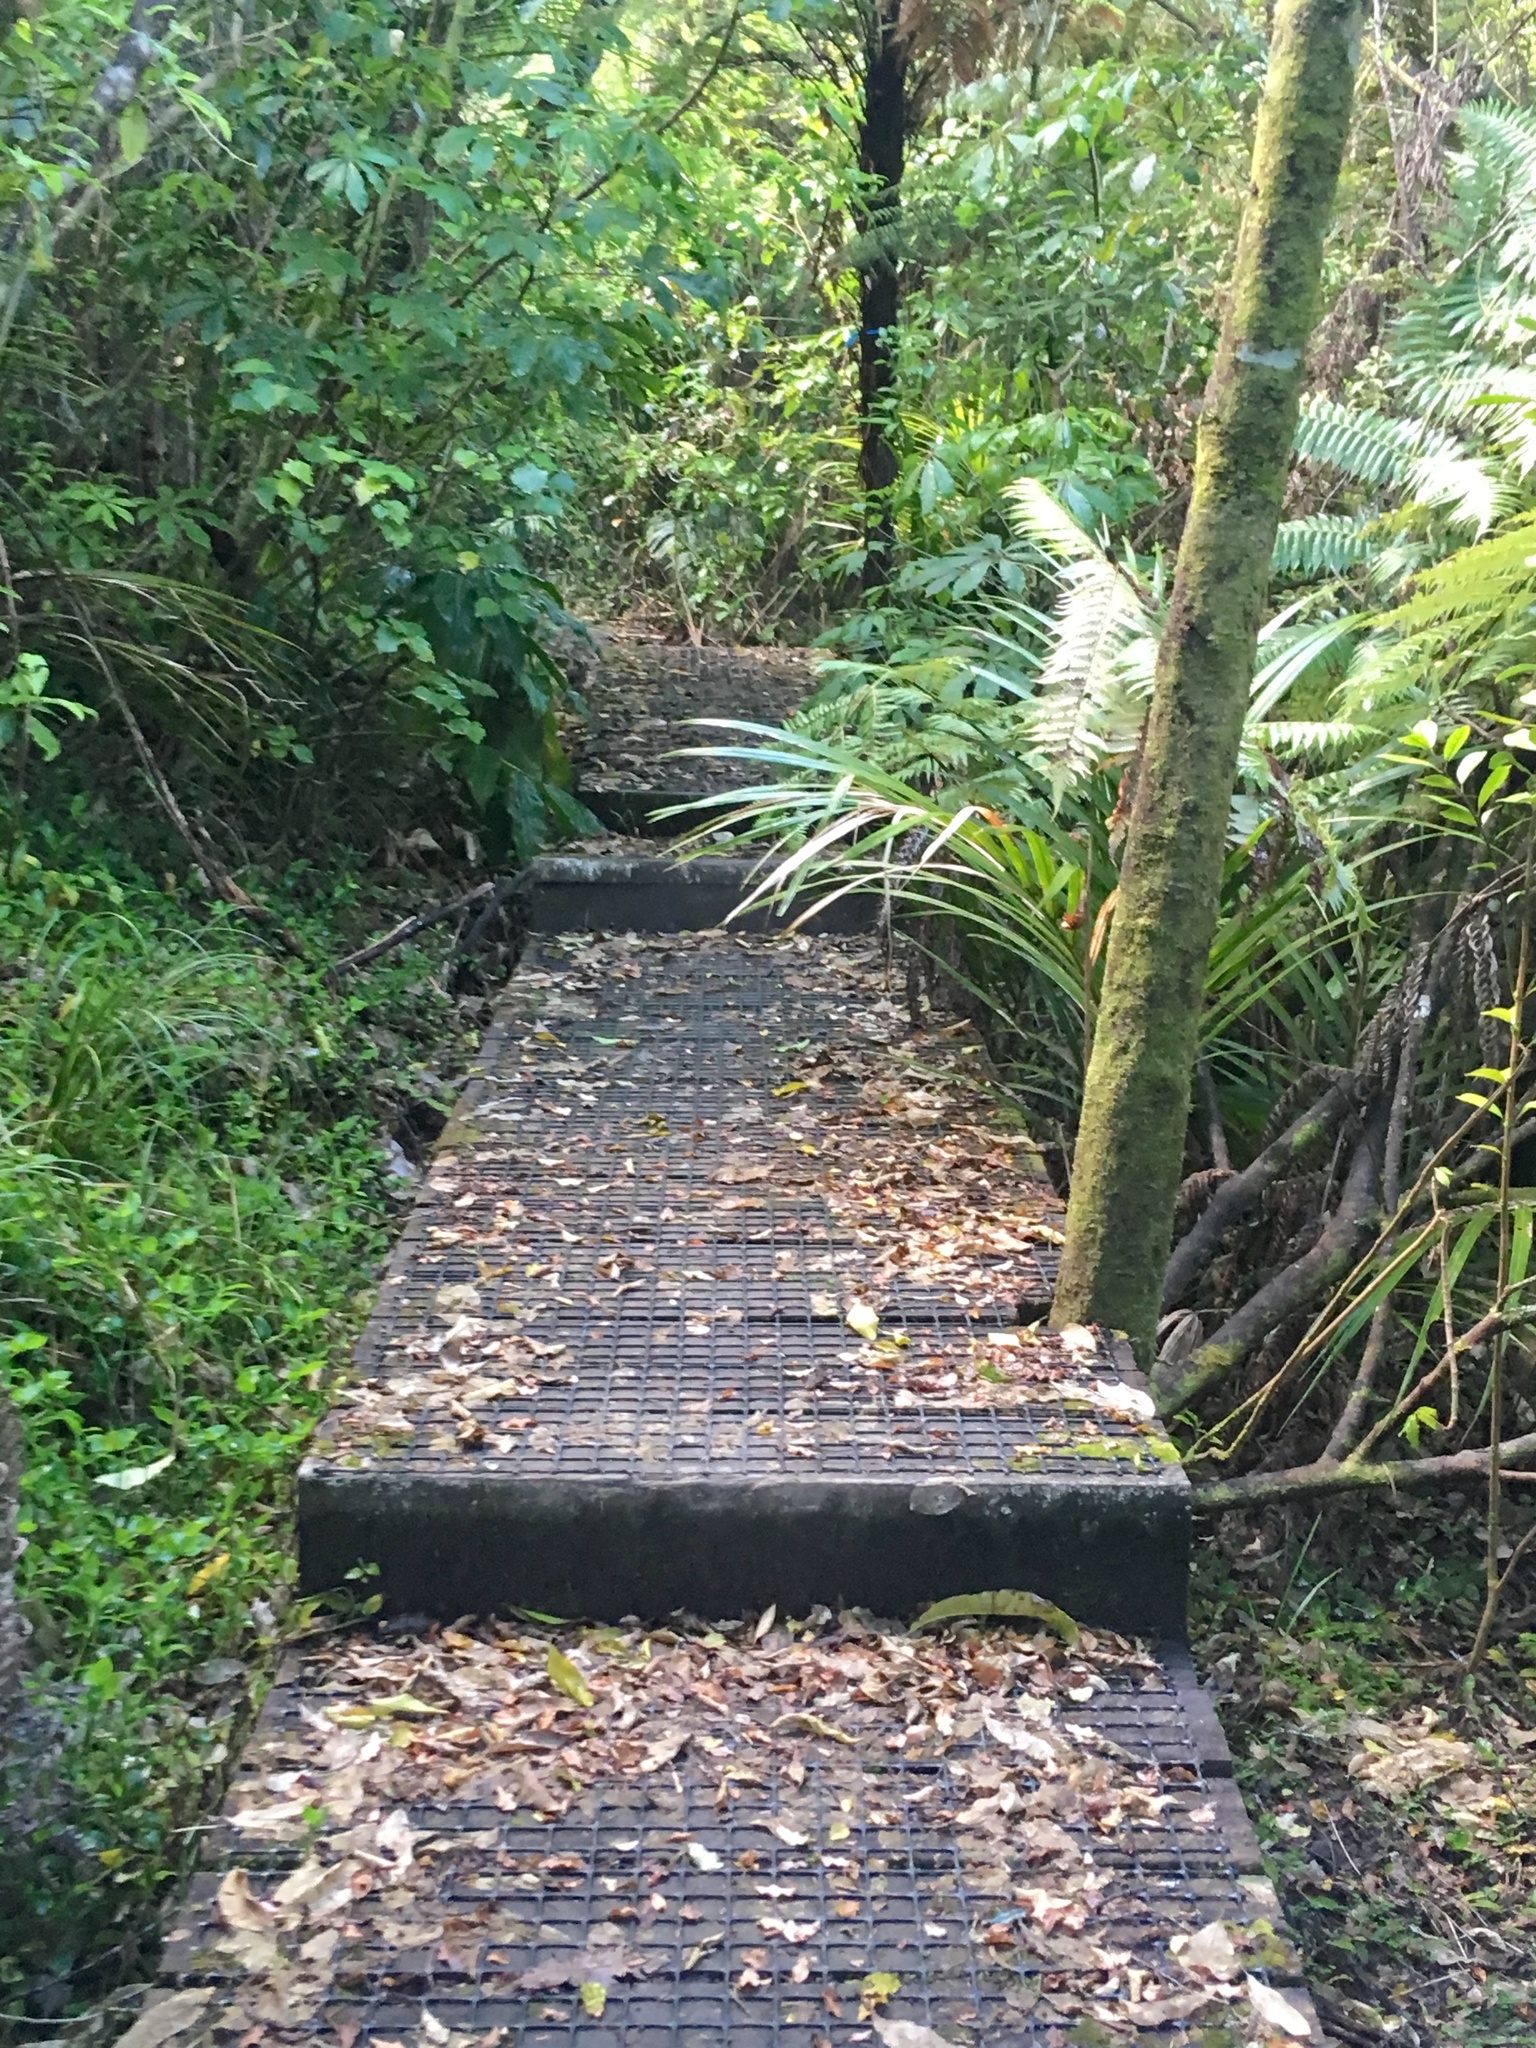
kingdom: Plantae
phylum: Tracheophyta
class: Magnoliopsida
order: Ericales
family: Primulaceae
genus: Myrsine
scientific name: Myrsine australis
